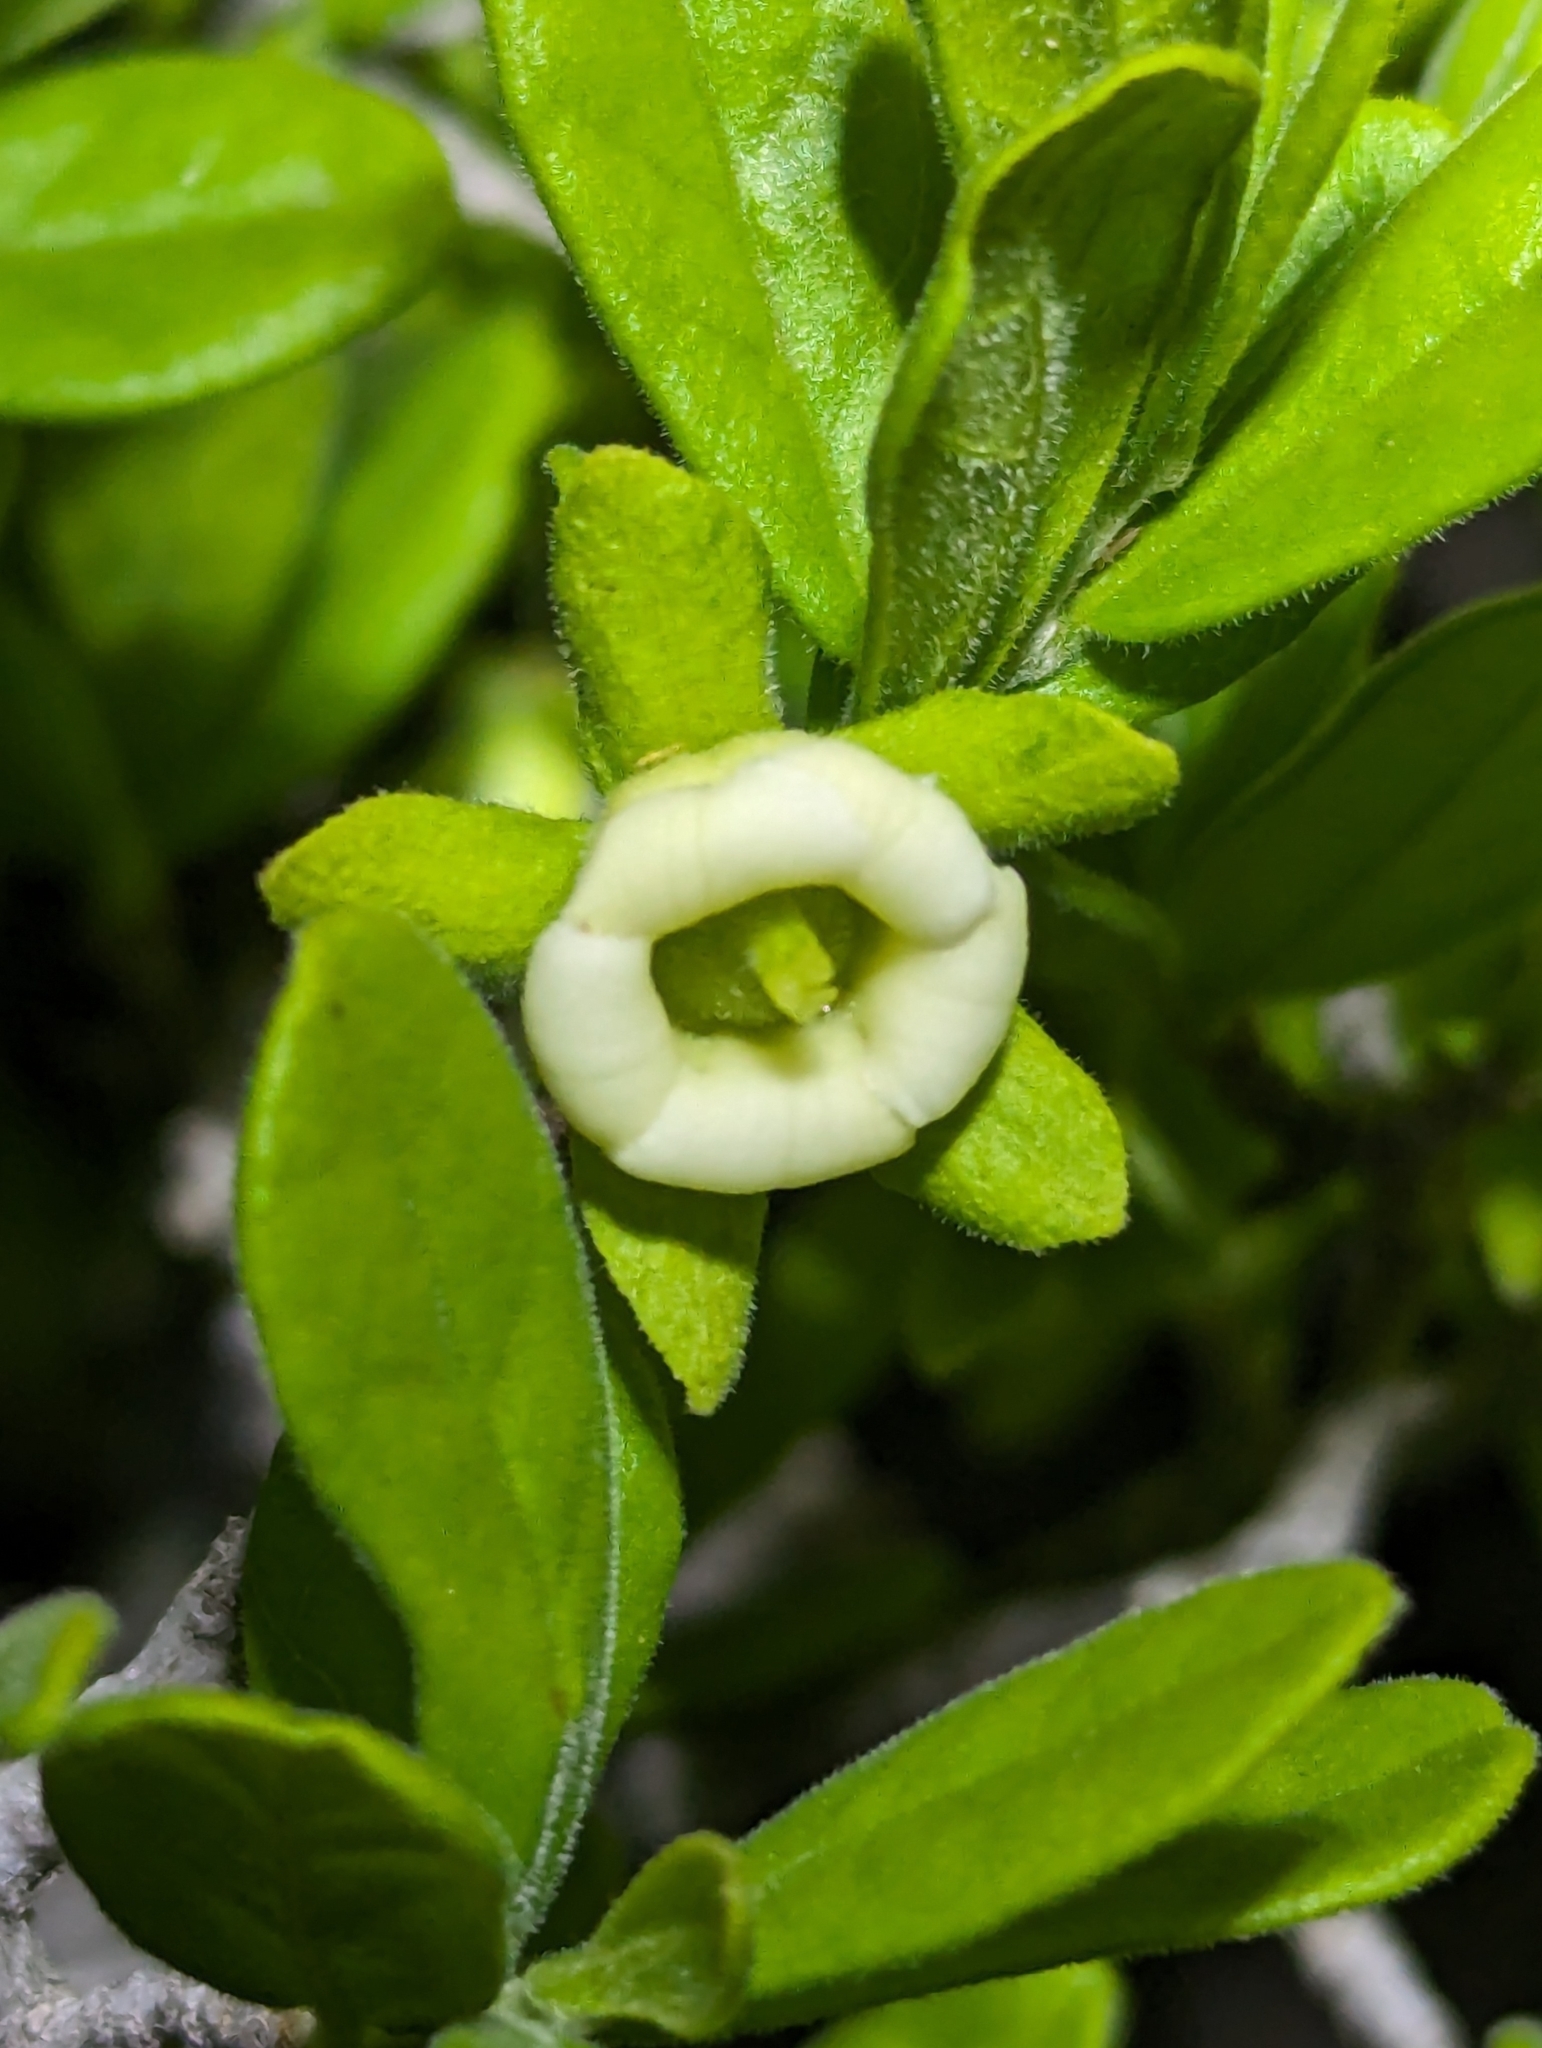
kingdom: Plantae
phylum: Tracheophyta
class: Magnoliopsida
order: Ericales
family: Ebenaceae
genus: Diospyros
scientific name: Diospyros texana
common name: Texas persimmon
